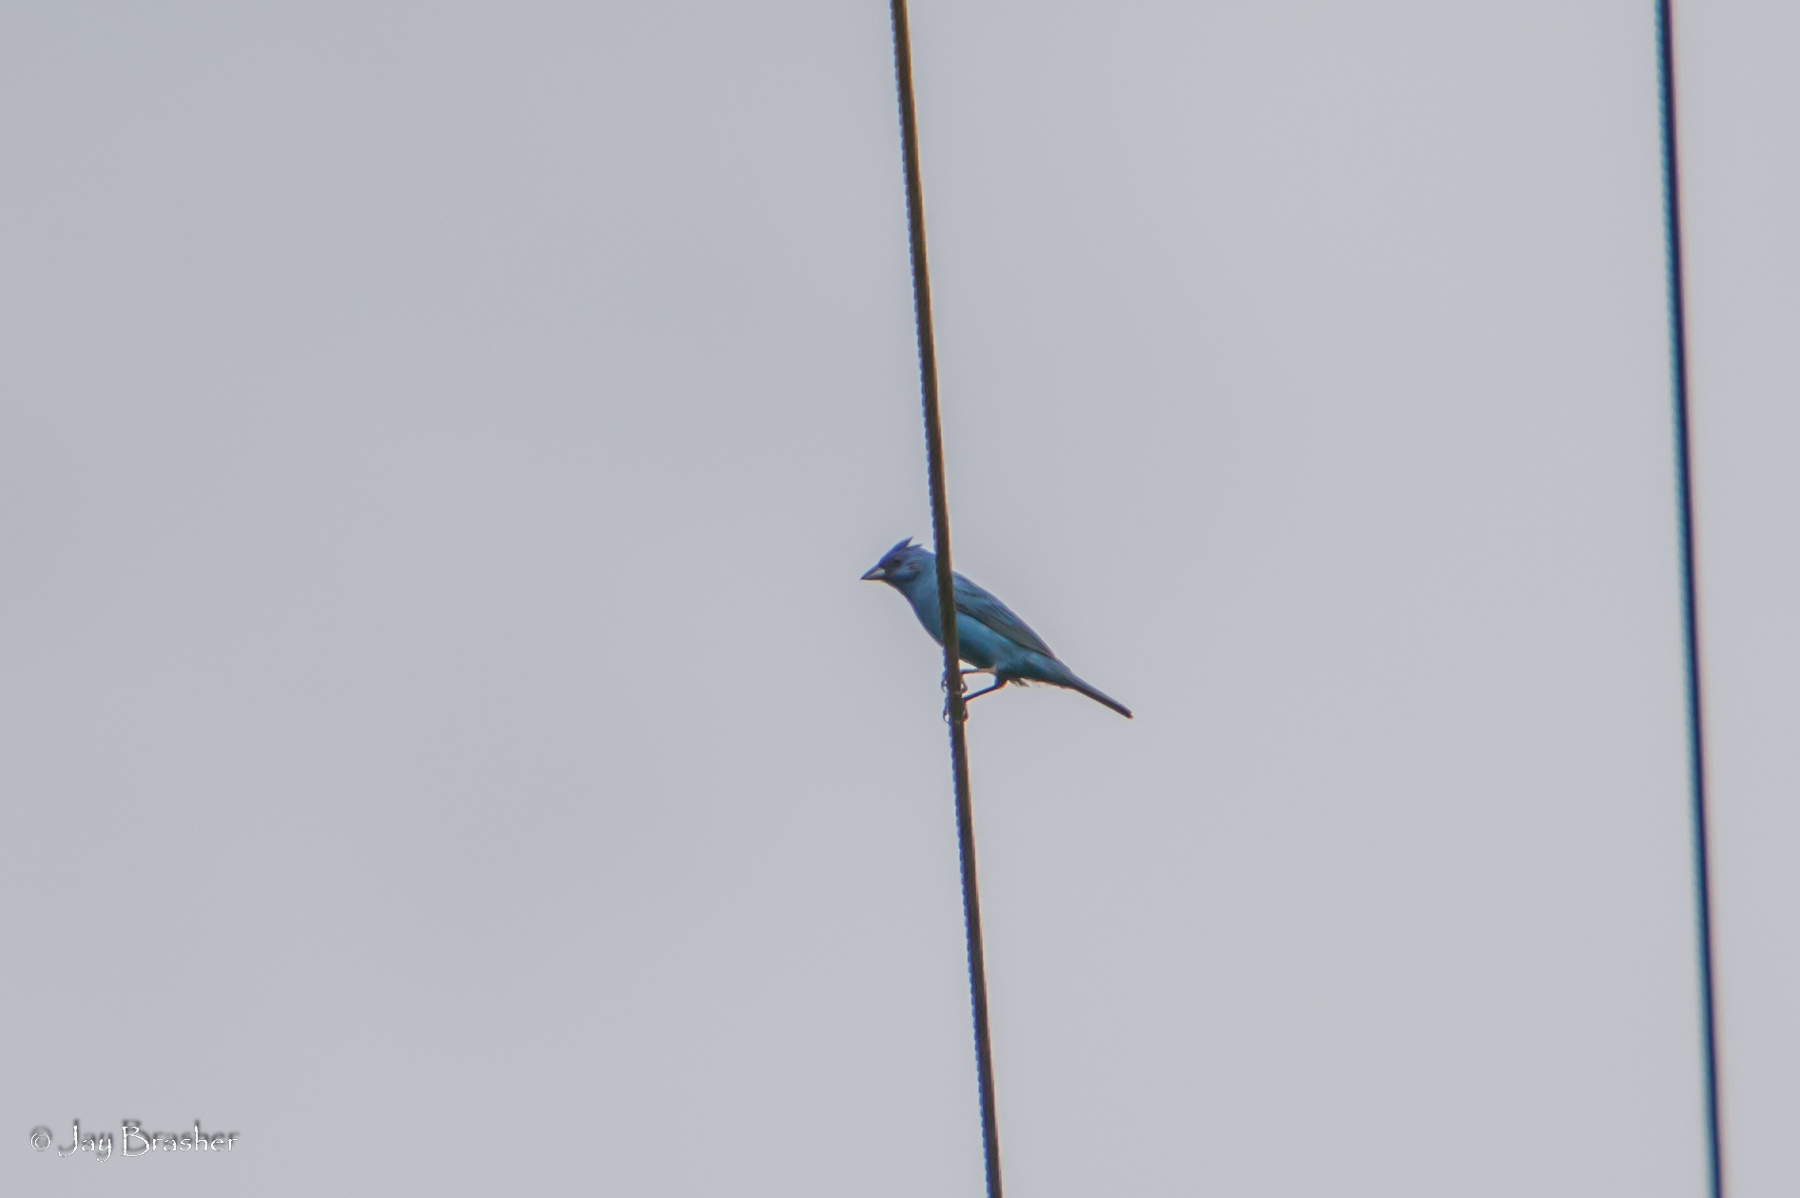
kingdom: Animalia
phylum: Chordata
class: Aves
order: Passeriformes
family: Cardinalidae
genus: Passerina
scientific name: Passerina cyanea
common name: Indigo bunting
